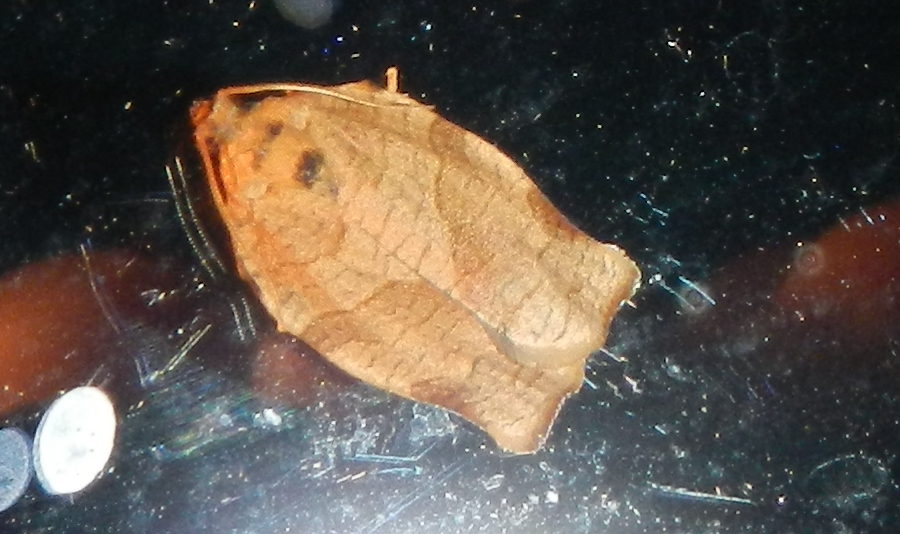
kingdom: Animalia
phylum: Arthropoda
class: Insecta
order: Lepidoptera
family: Tortricidae
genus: Choristoneura
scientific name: Choristoneura rosaceana
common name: Oblique-banded leafroller moth
